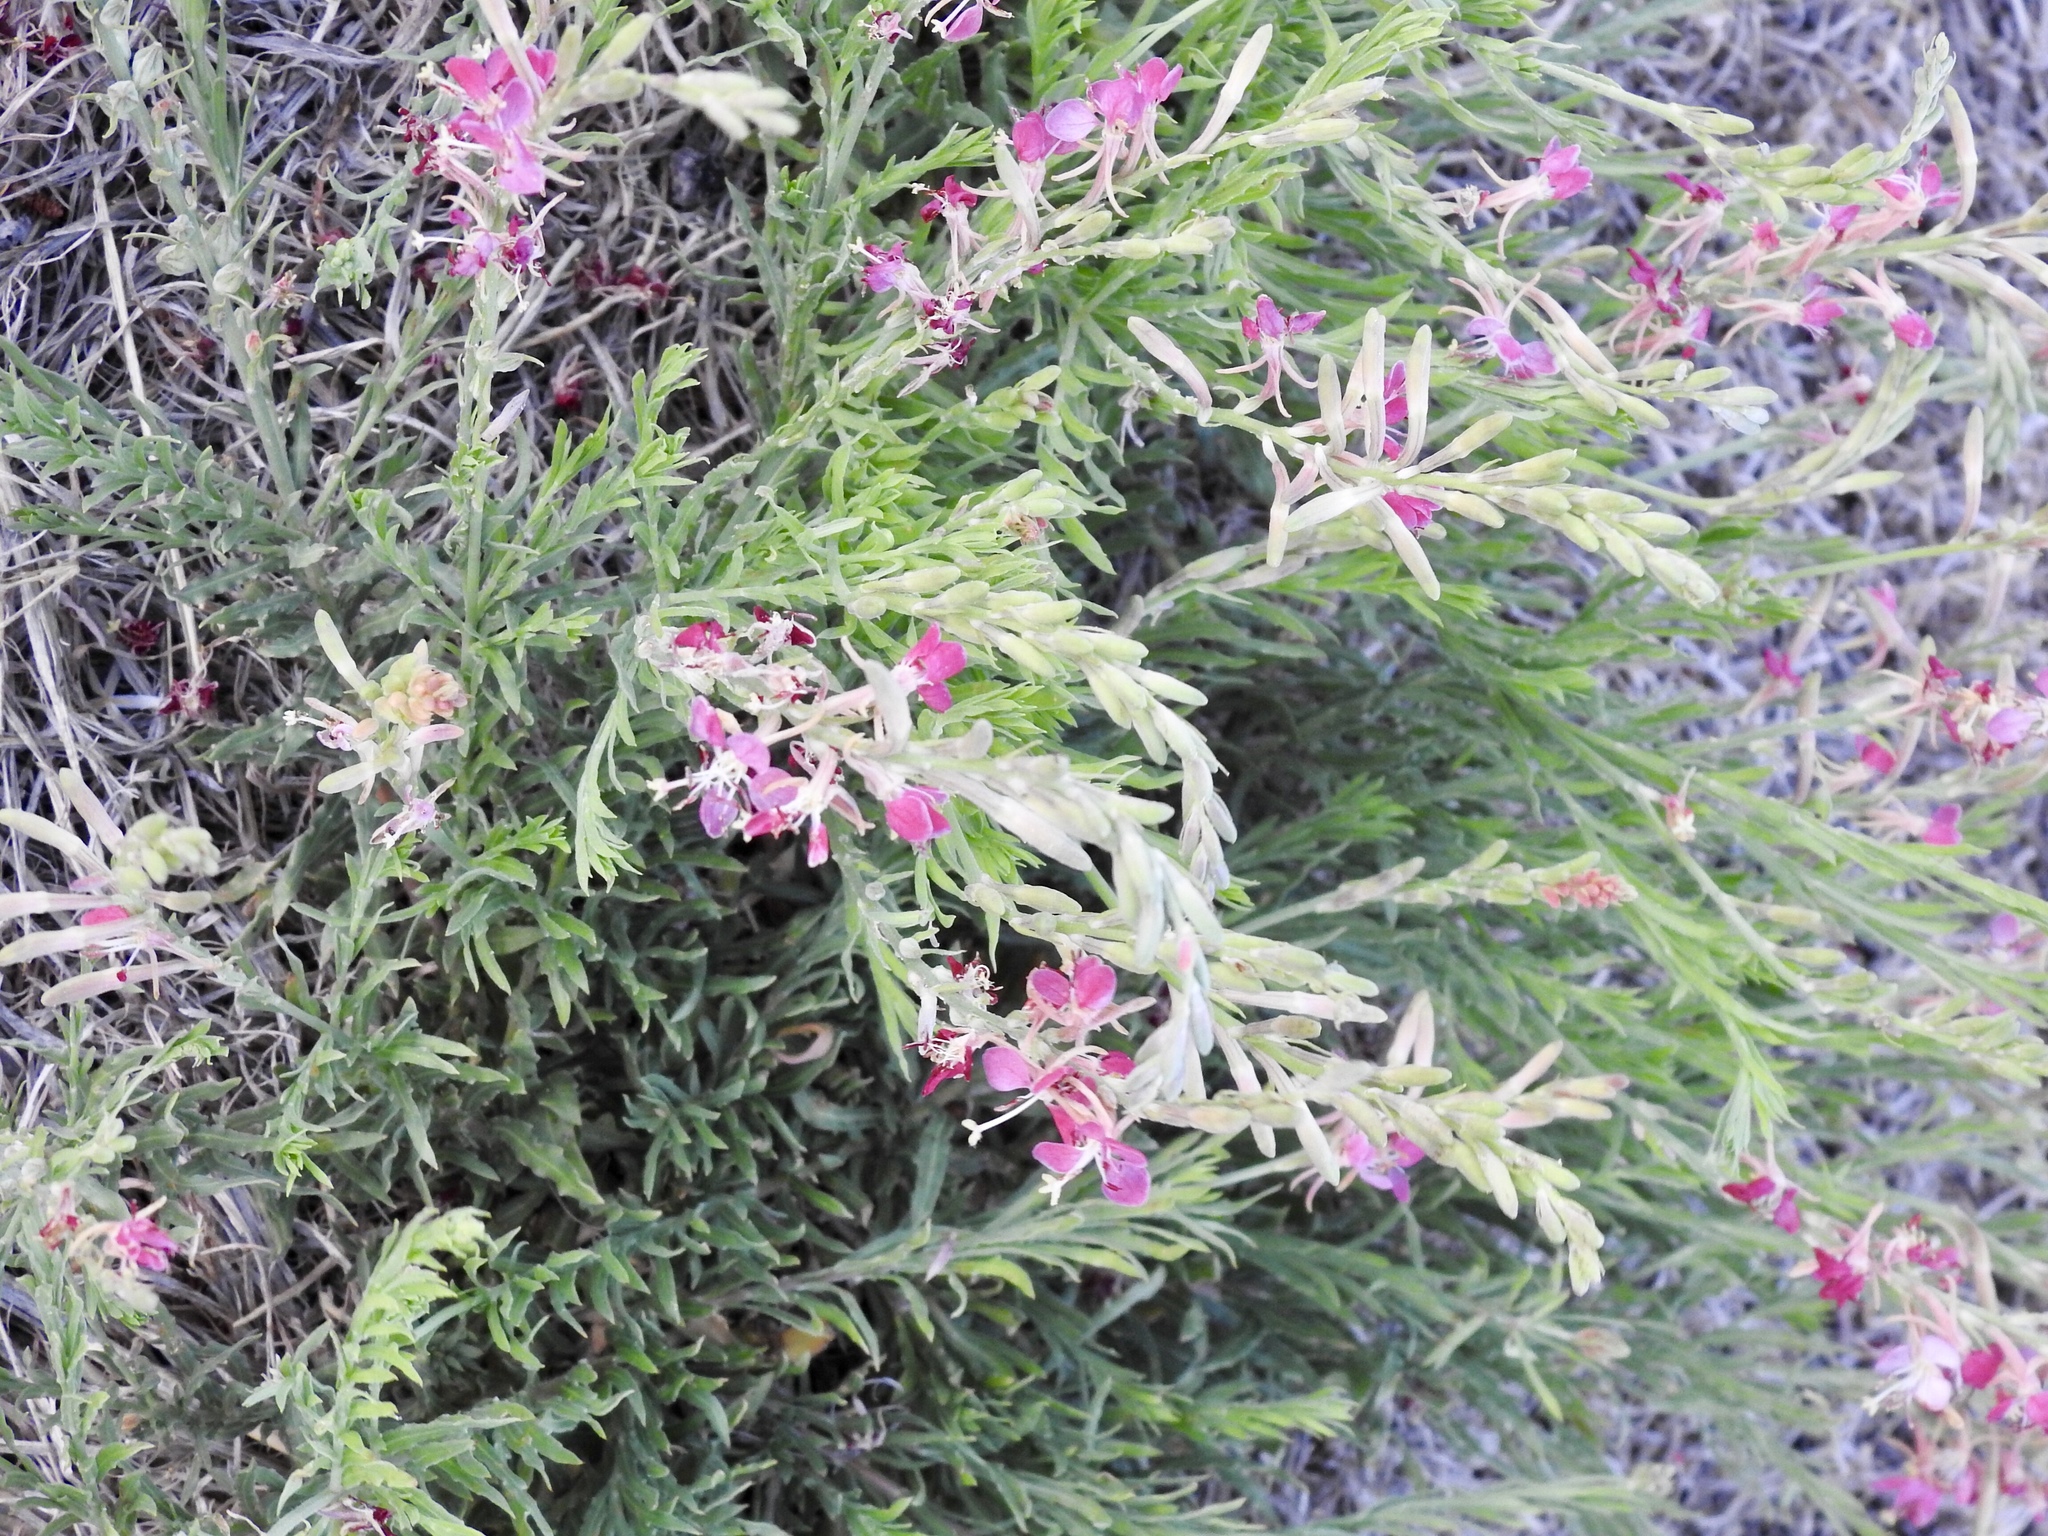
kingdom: Plantae
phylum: Tracheophyta
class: Magnoliopsida
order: Zygophyllales
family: Krameriaceae
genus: Krameria
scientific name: Krameria lanceolata
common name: Ratany
